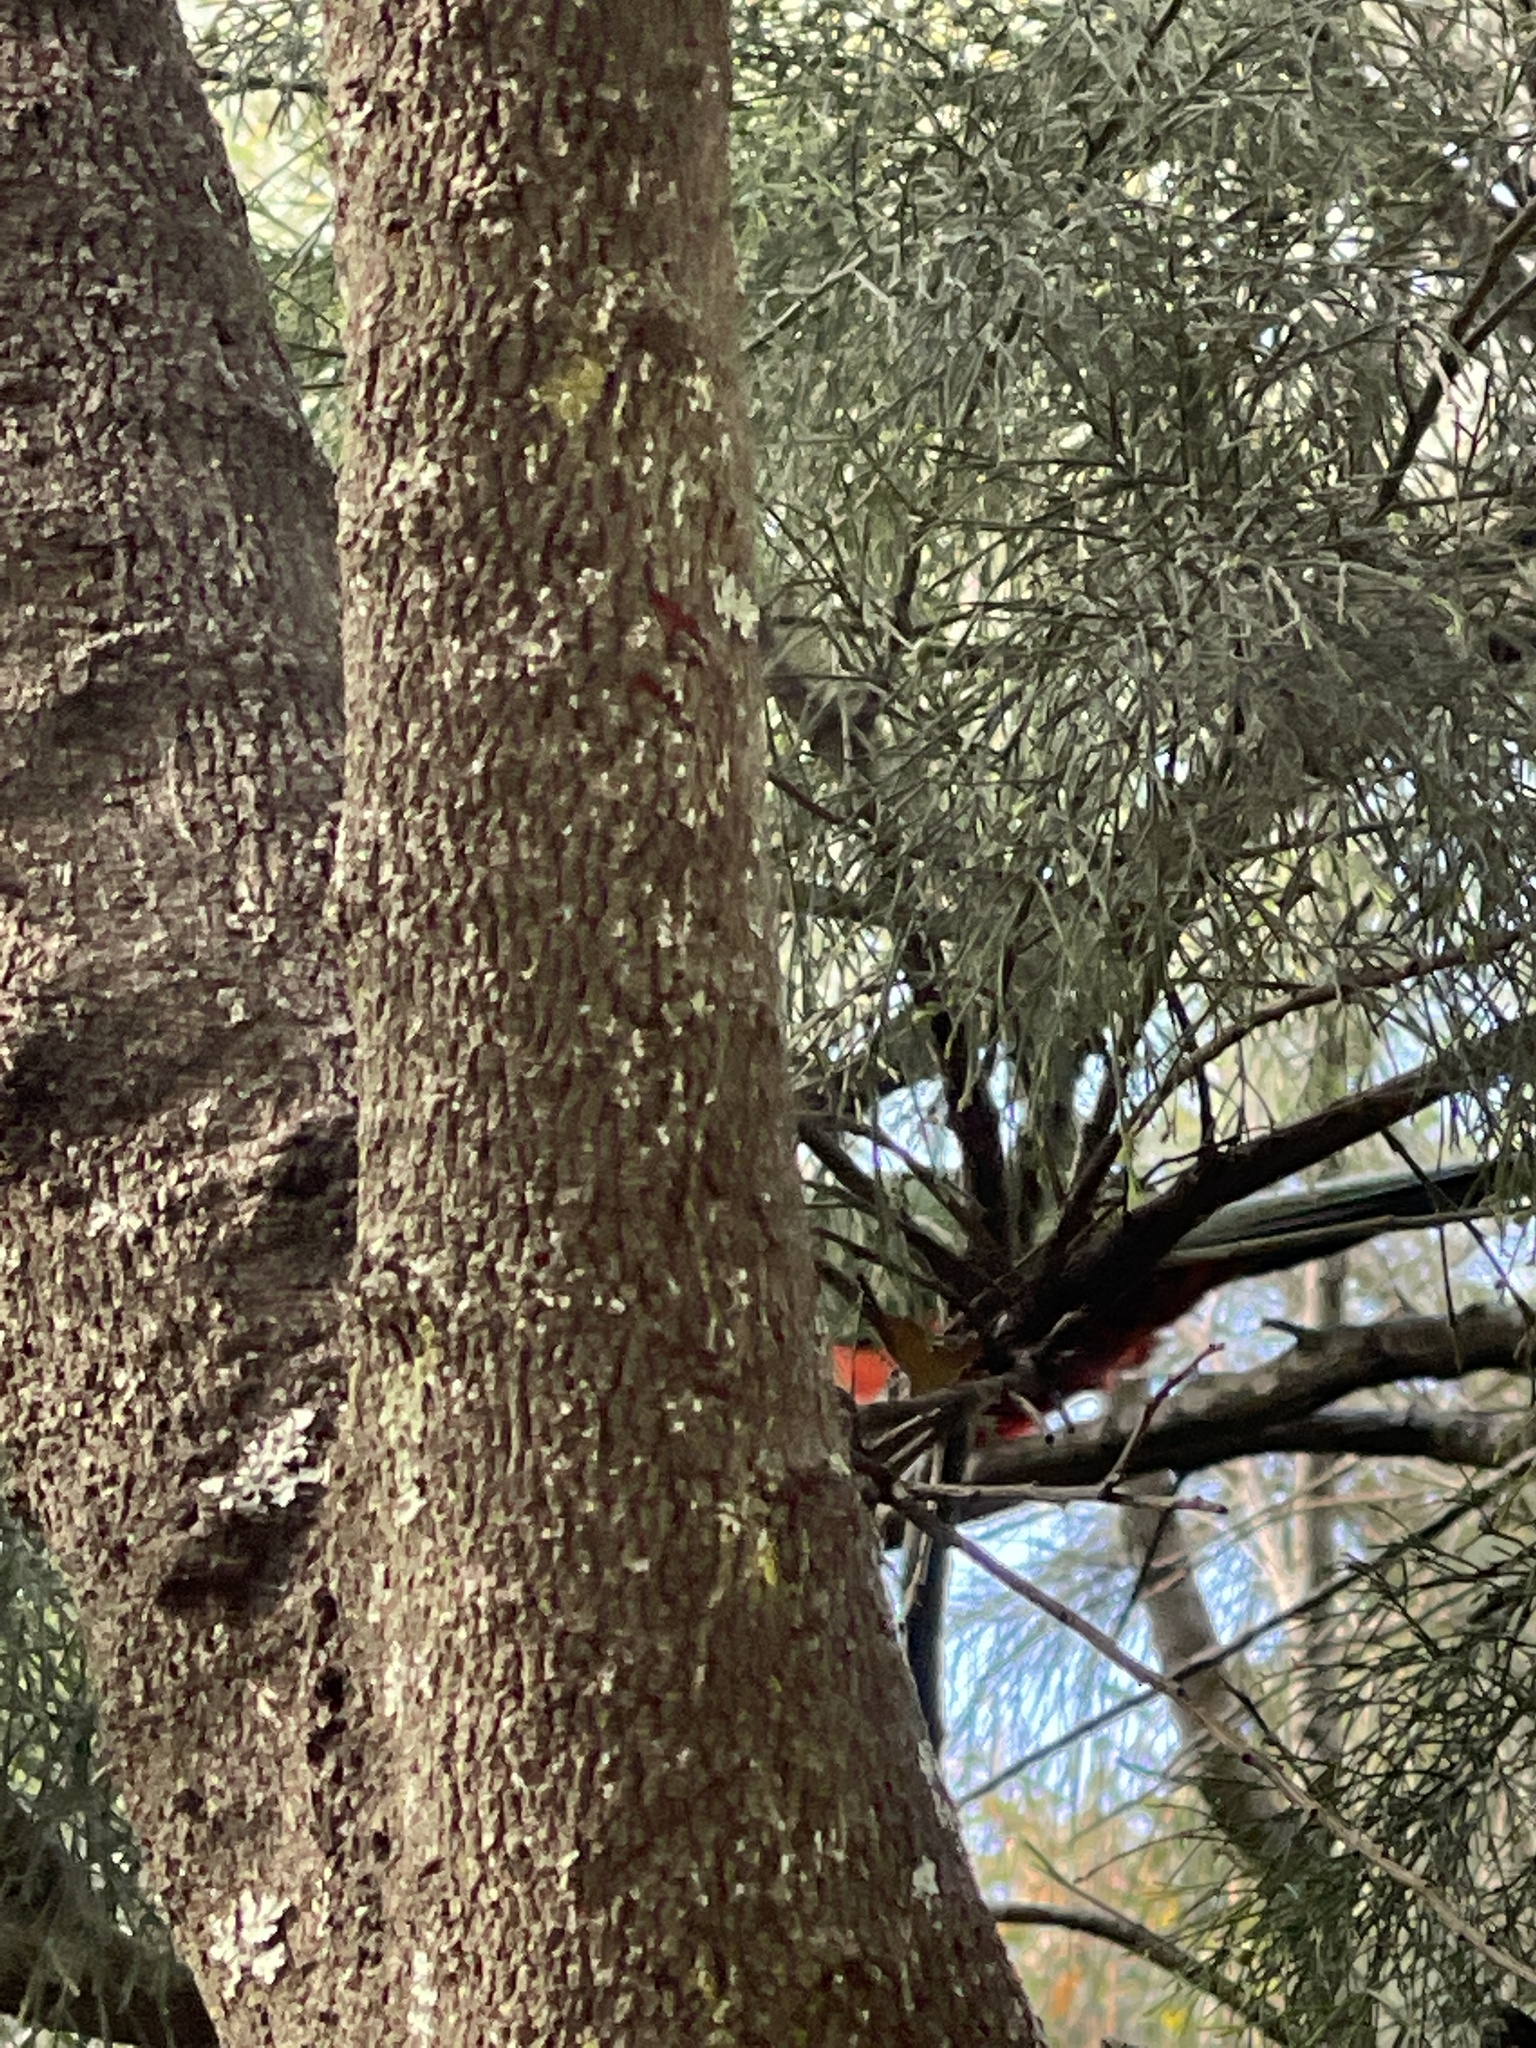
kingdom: Animalia
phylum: Chordata
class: Aves
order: Psittaciformes
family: Psittacidae
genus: Alisterus
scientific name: Alisterus scapularis
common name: Australian king parrot
